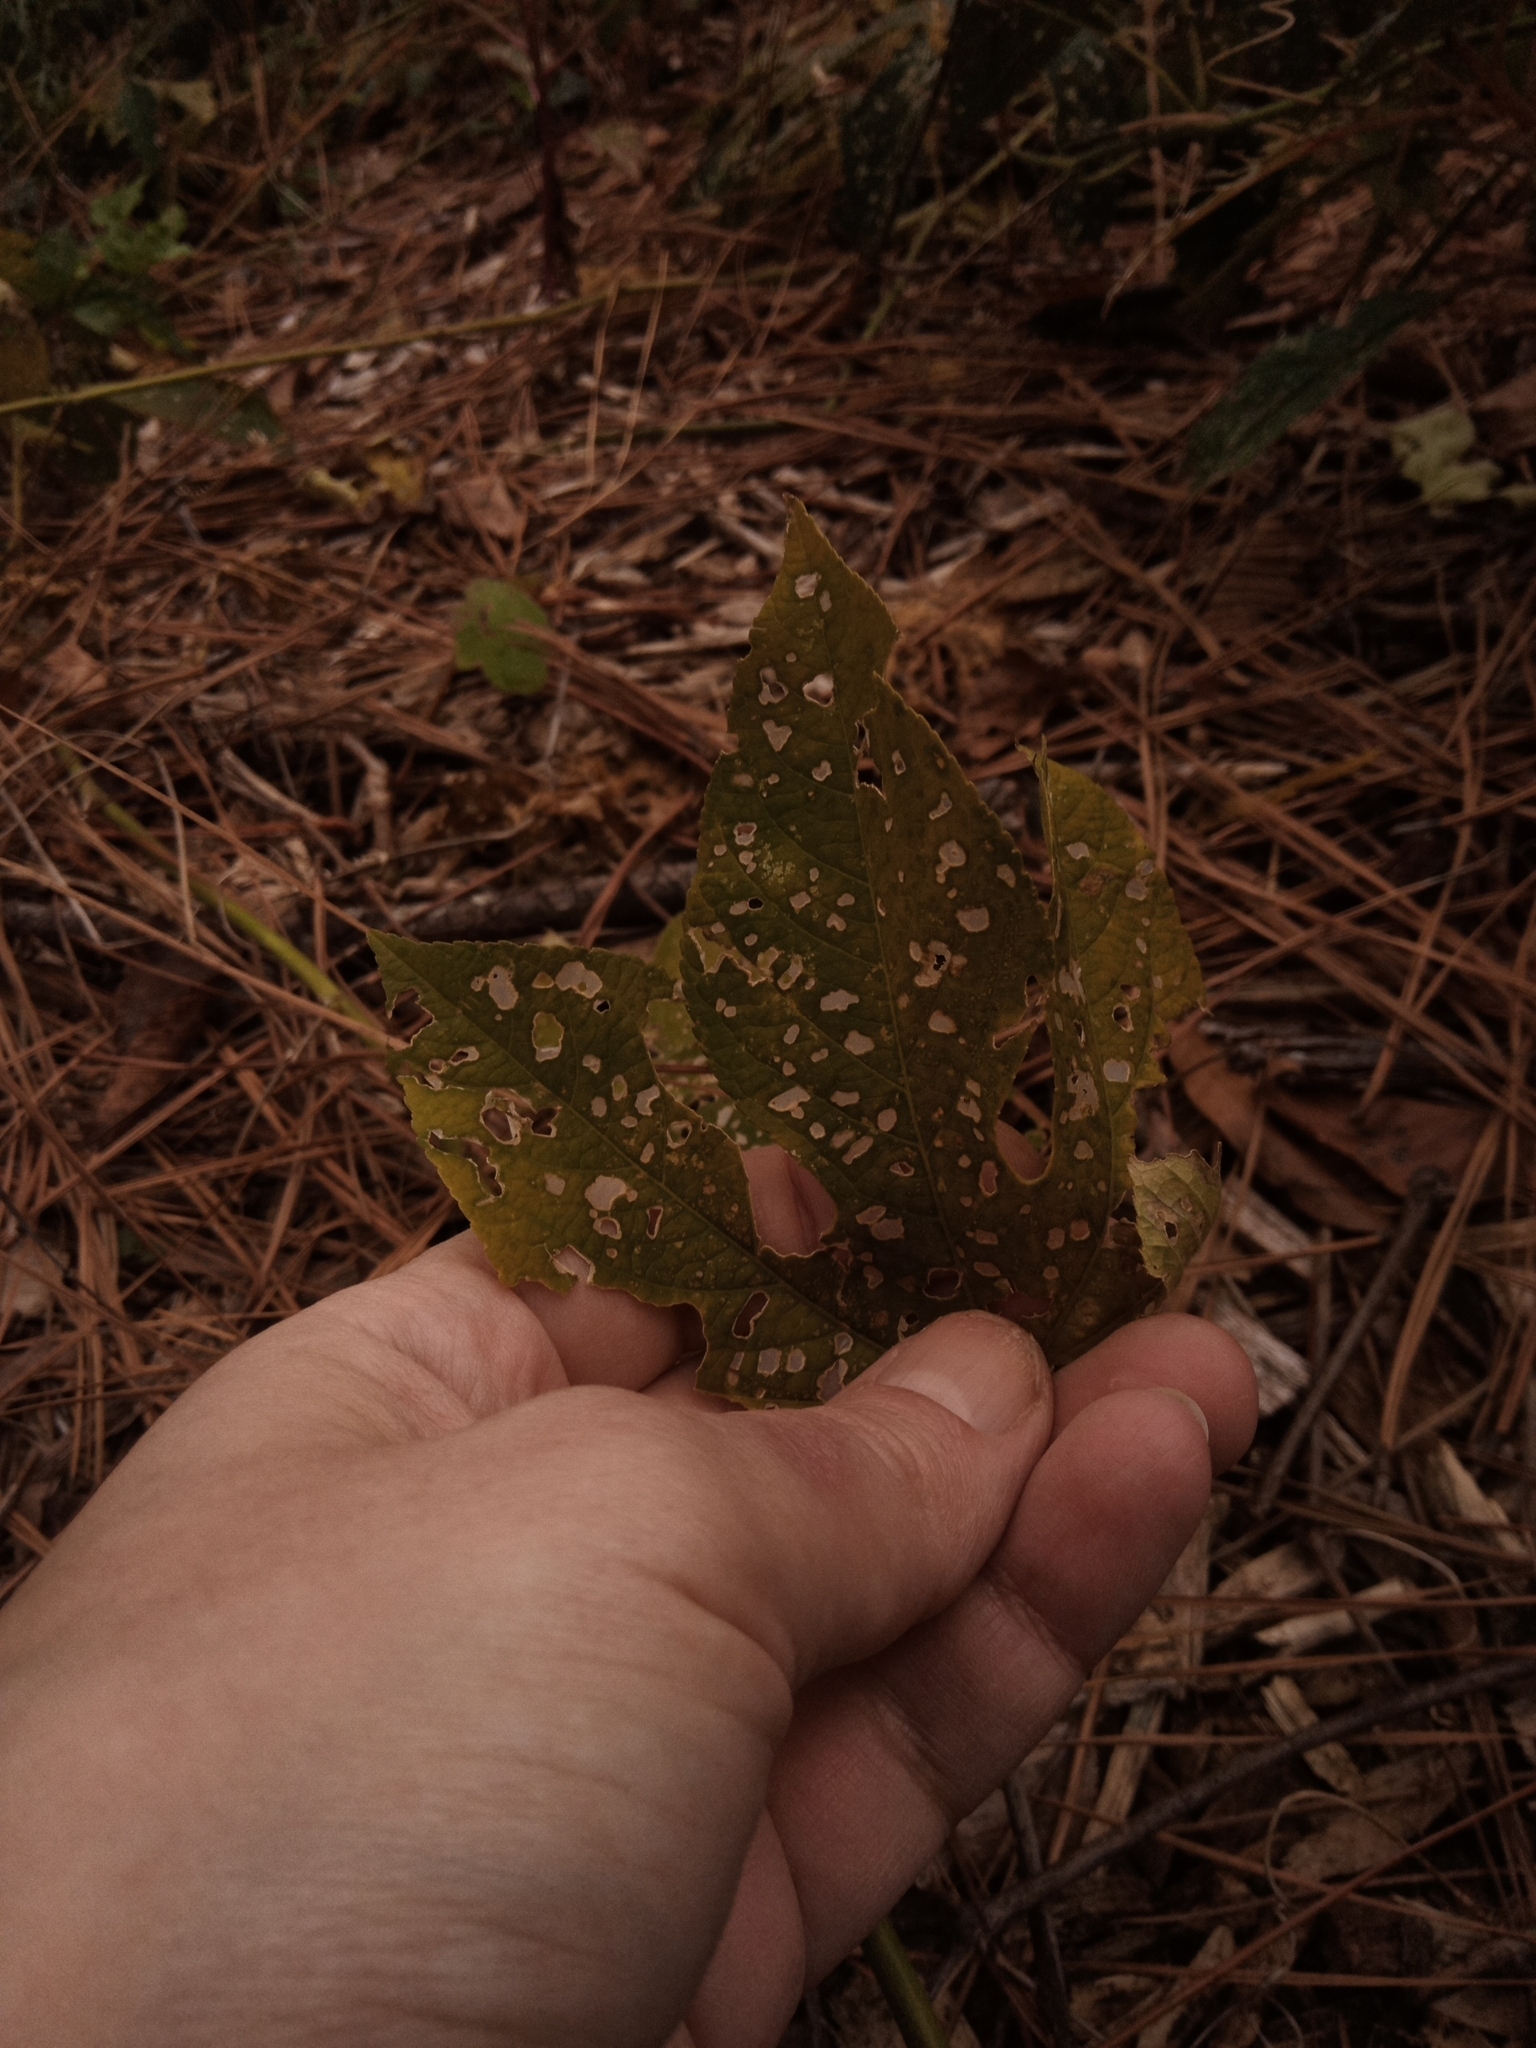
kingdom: Plantae
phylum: Tracheophyta
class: Magnoliopsida
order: Malpighiales
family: Passifloraceae
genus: Passiflora
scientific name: Passiflora incarnata
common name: Apricot-vine
